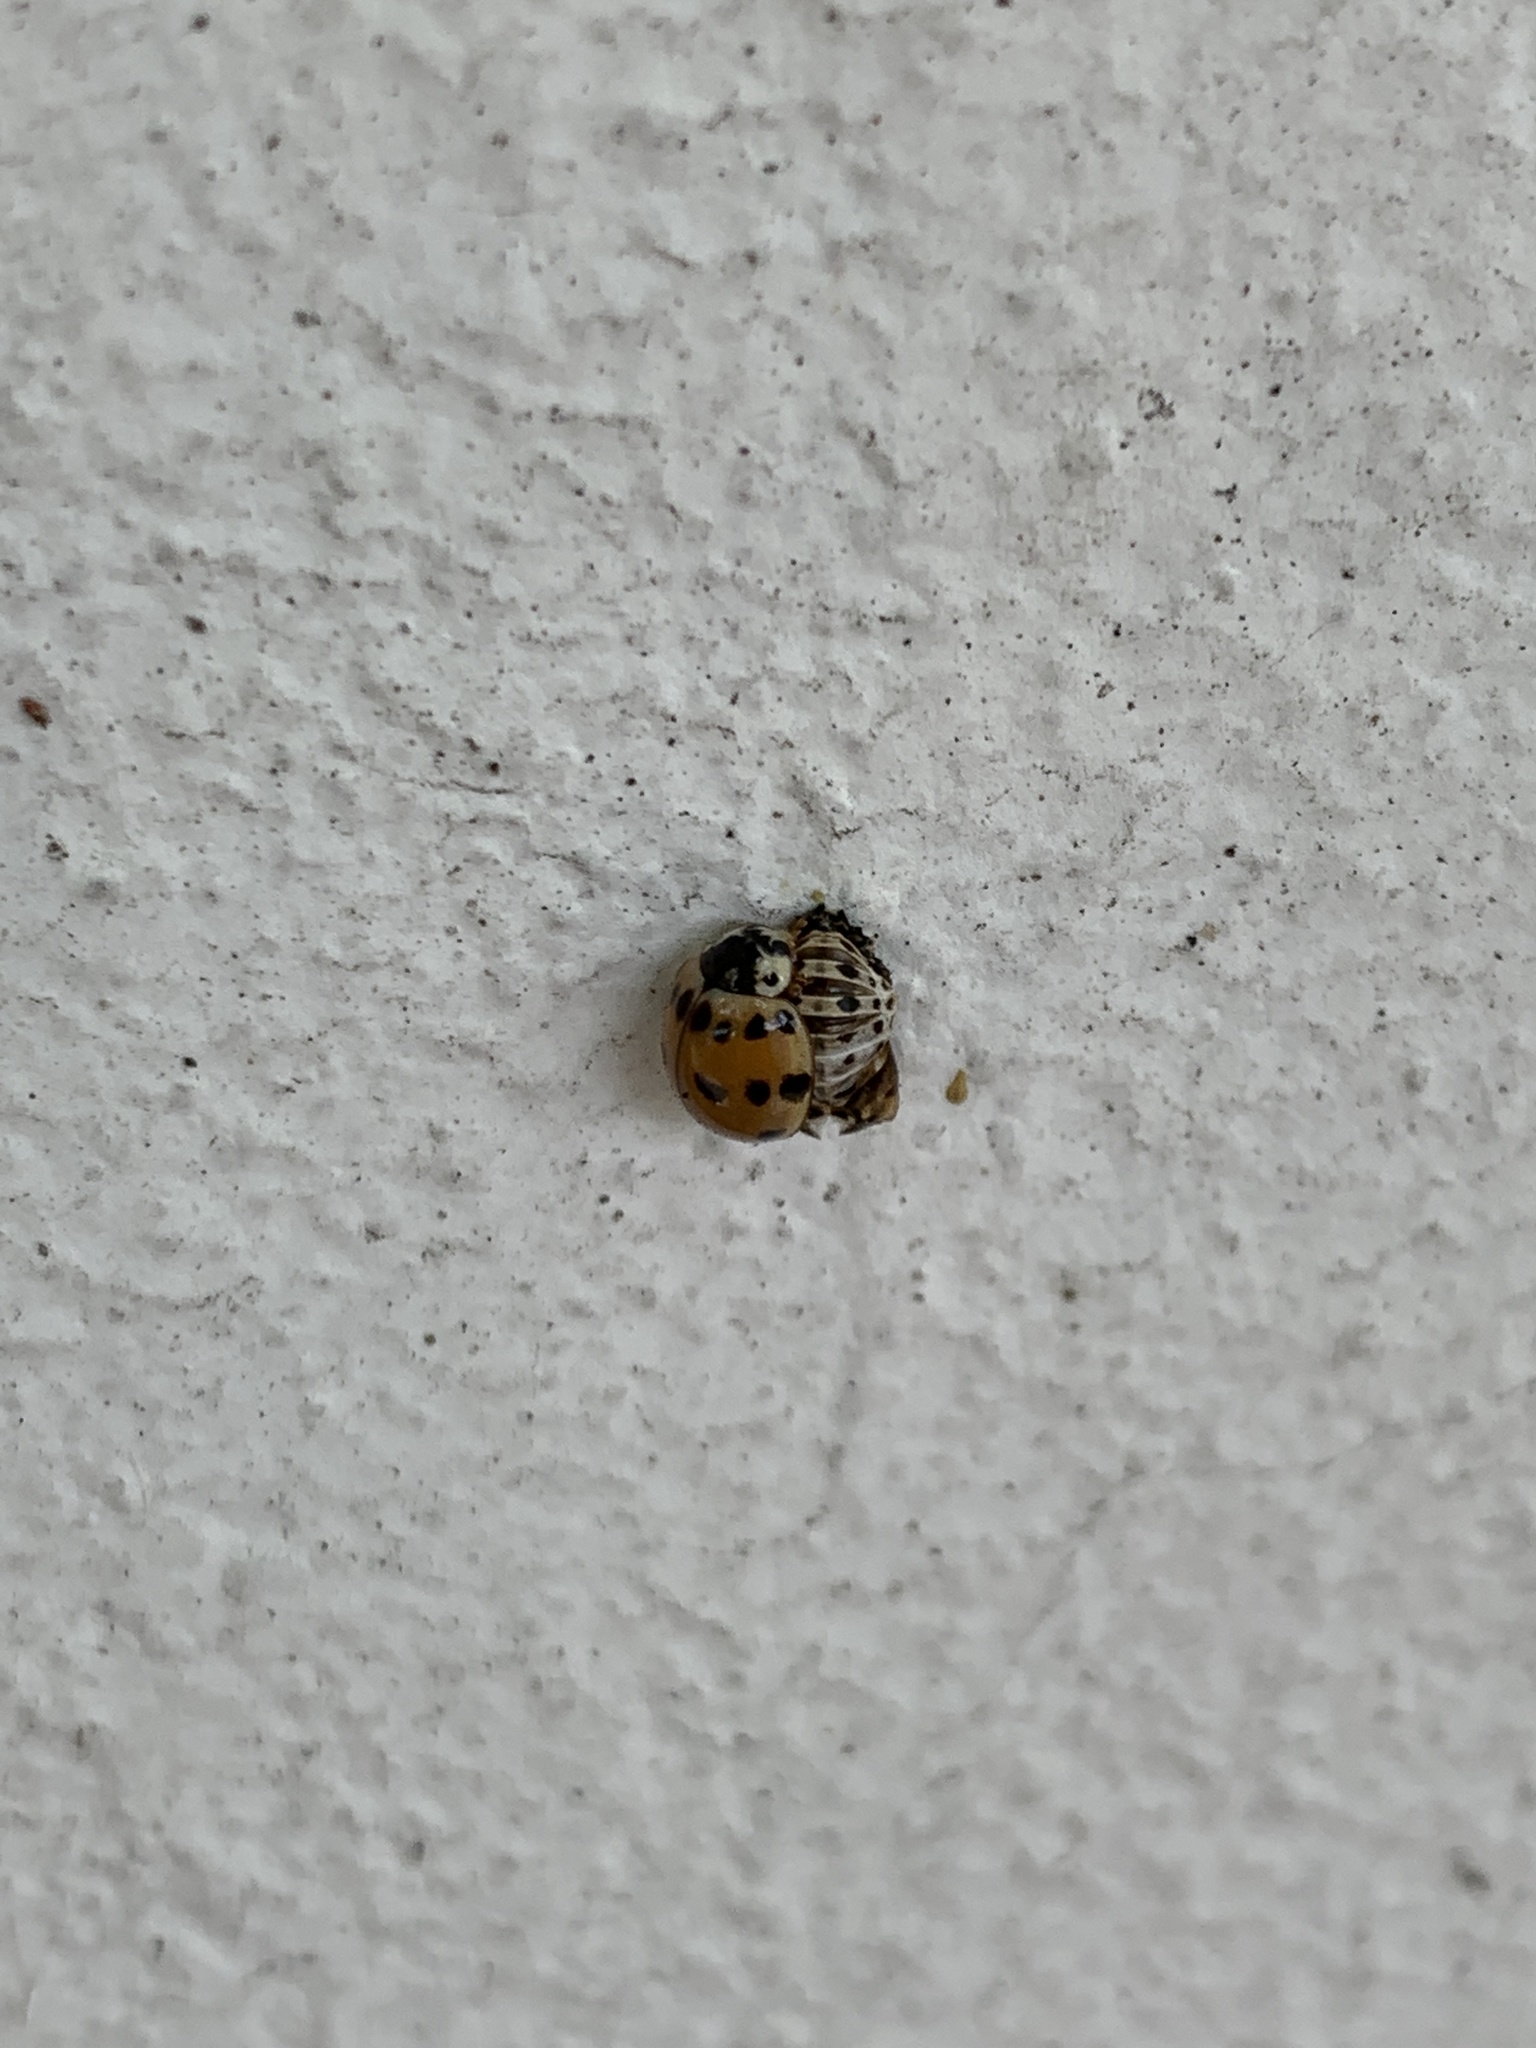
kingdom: Animalia
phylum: Arthropoda
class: Insecta
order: Coleoptera
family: Coccinellidae
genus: Harmonia
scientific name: Harmonia axyridis
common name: Harlequin ladybird
